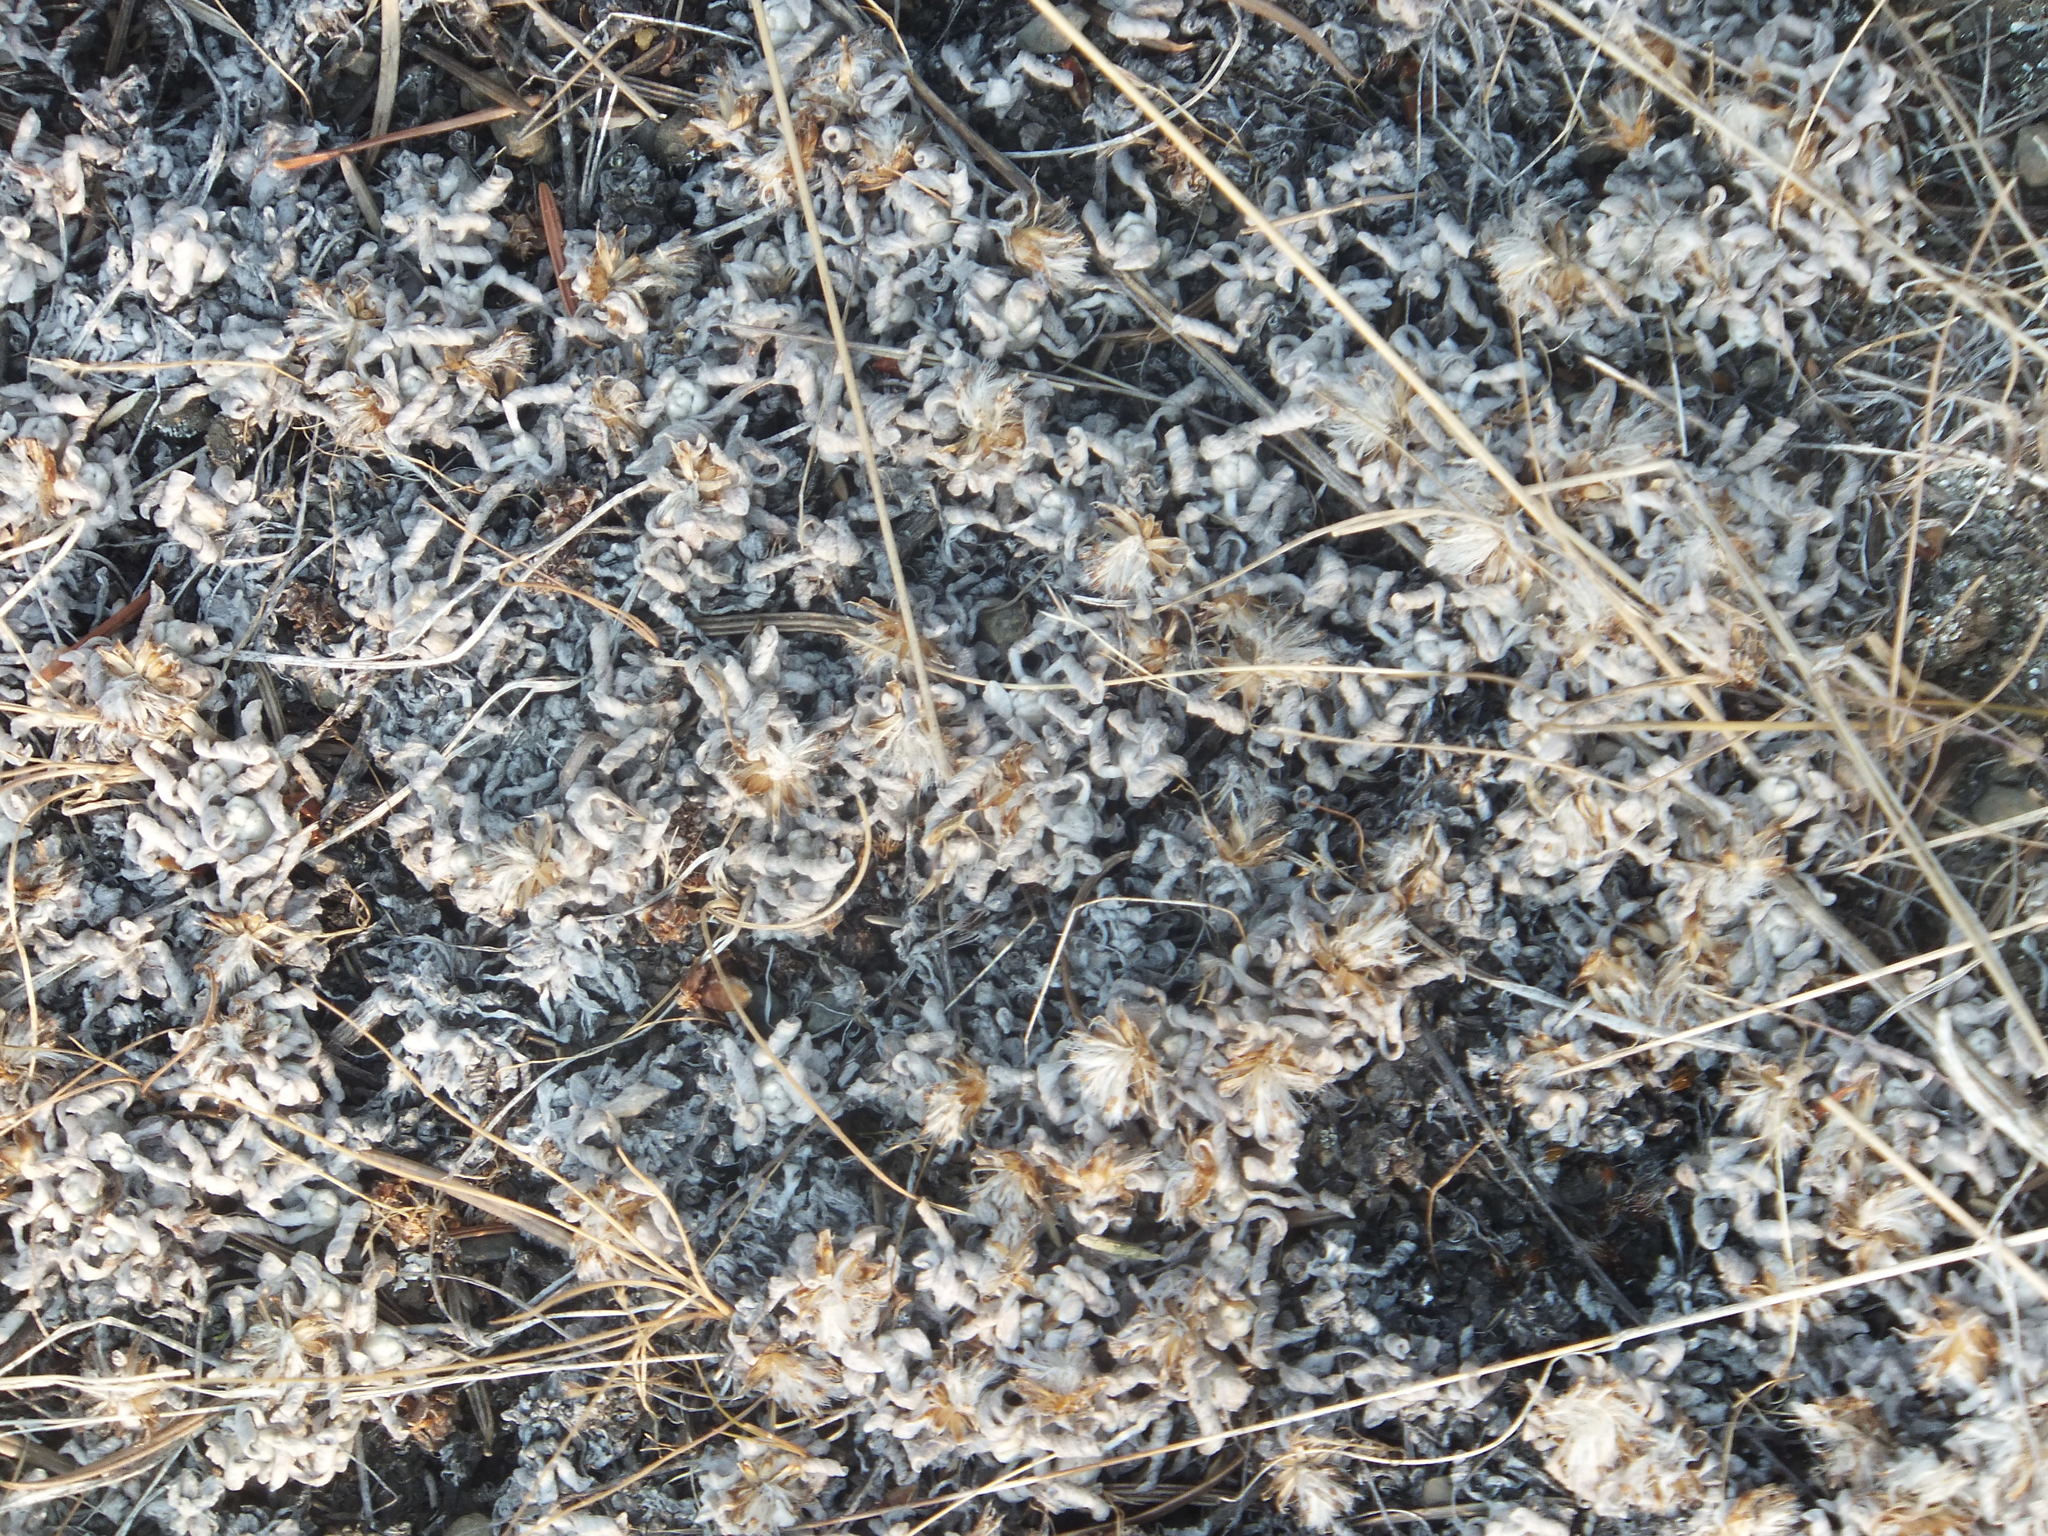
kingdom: Plantae
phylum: Tracheophyta
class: Magnoliopsida
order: Asterales
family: Asteraceae
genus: Antennaria
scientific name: Antennaria dimorpha
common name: Cushion pussytoes
